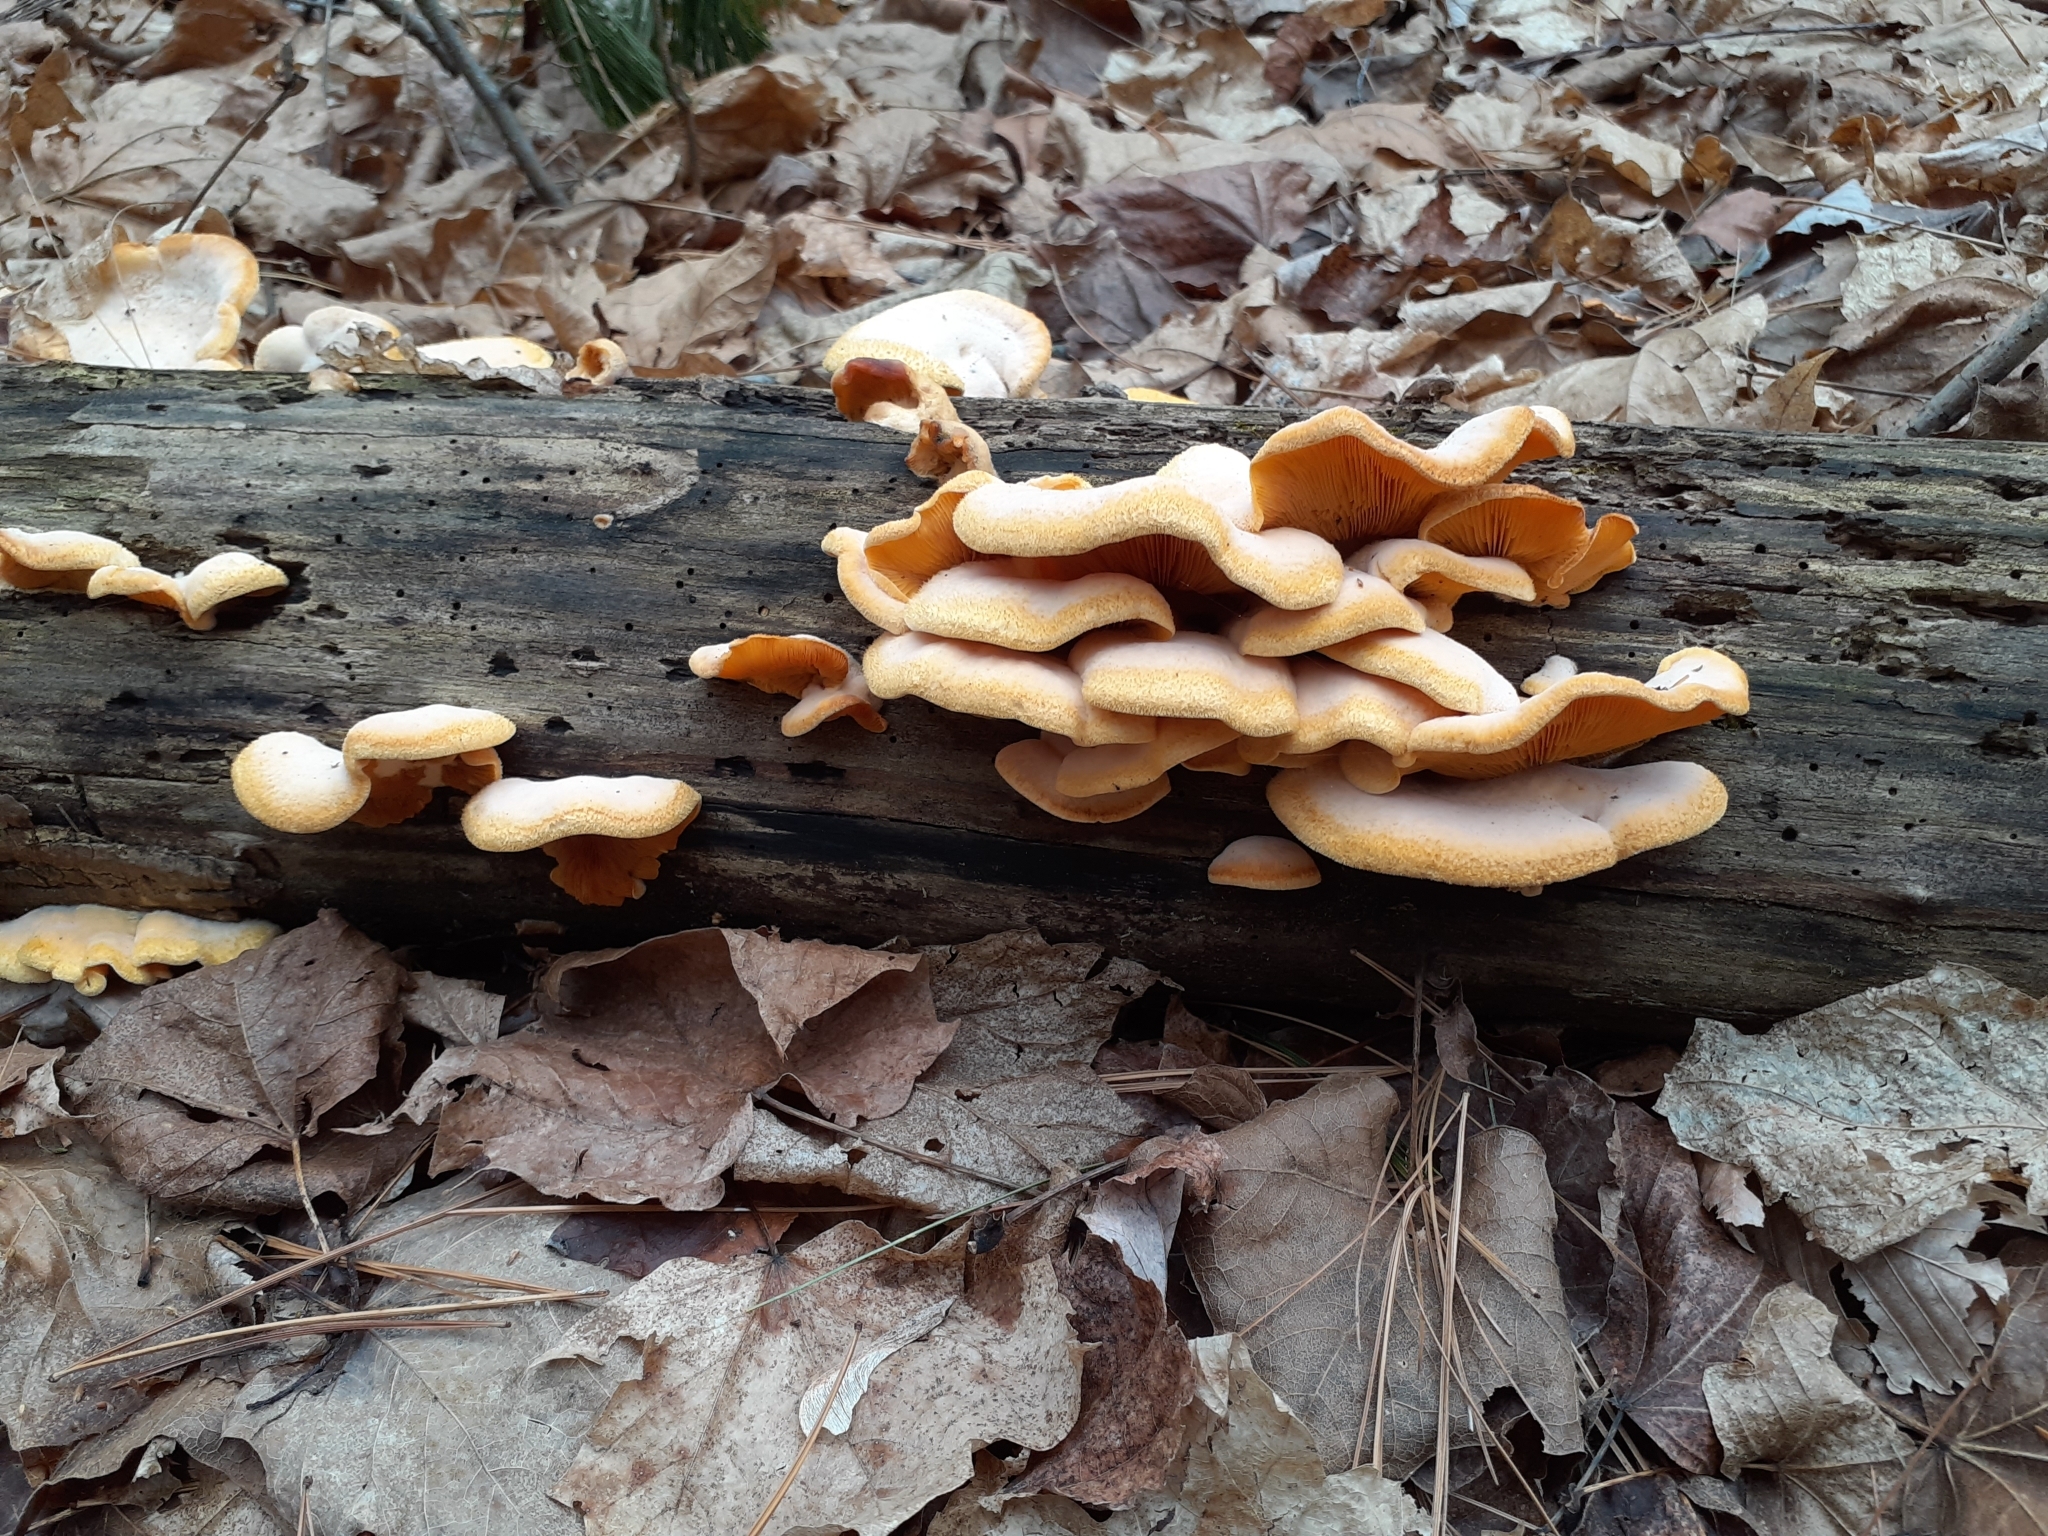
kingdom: Fungi
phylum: Basidiomycota
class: Agaricomycetes
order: Agaricales
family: Phyllotopsidaceae
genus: Phyllotopsis
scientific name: Phyllotopsis nidulans
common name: Orange mock oyster
